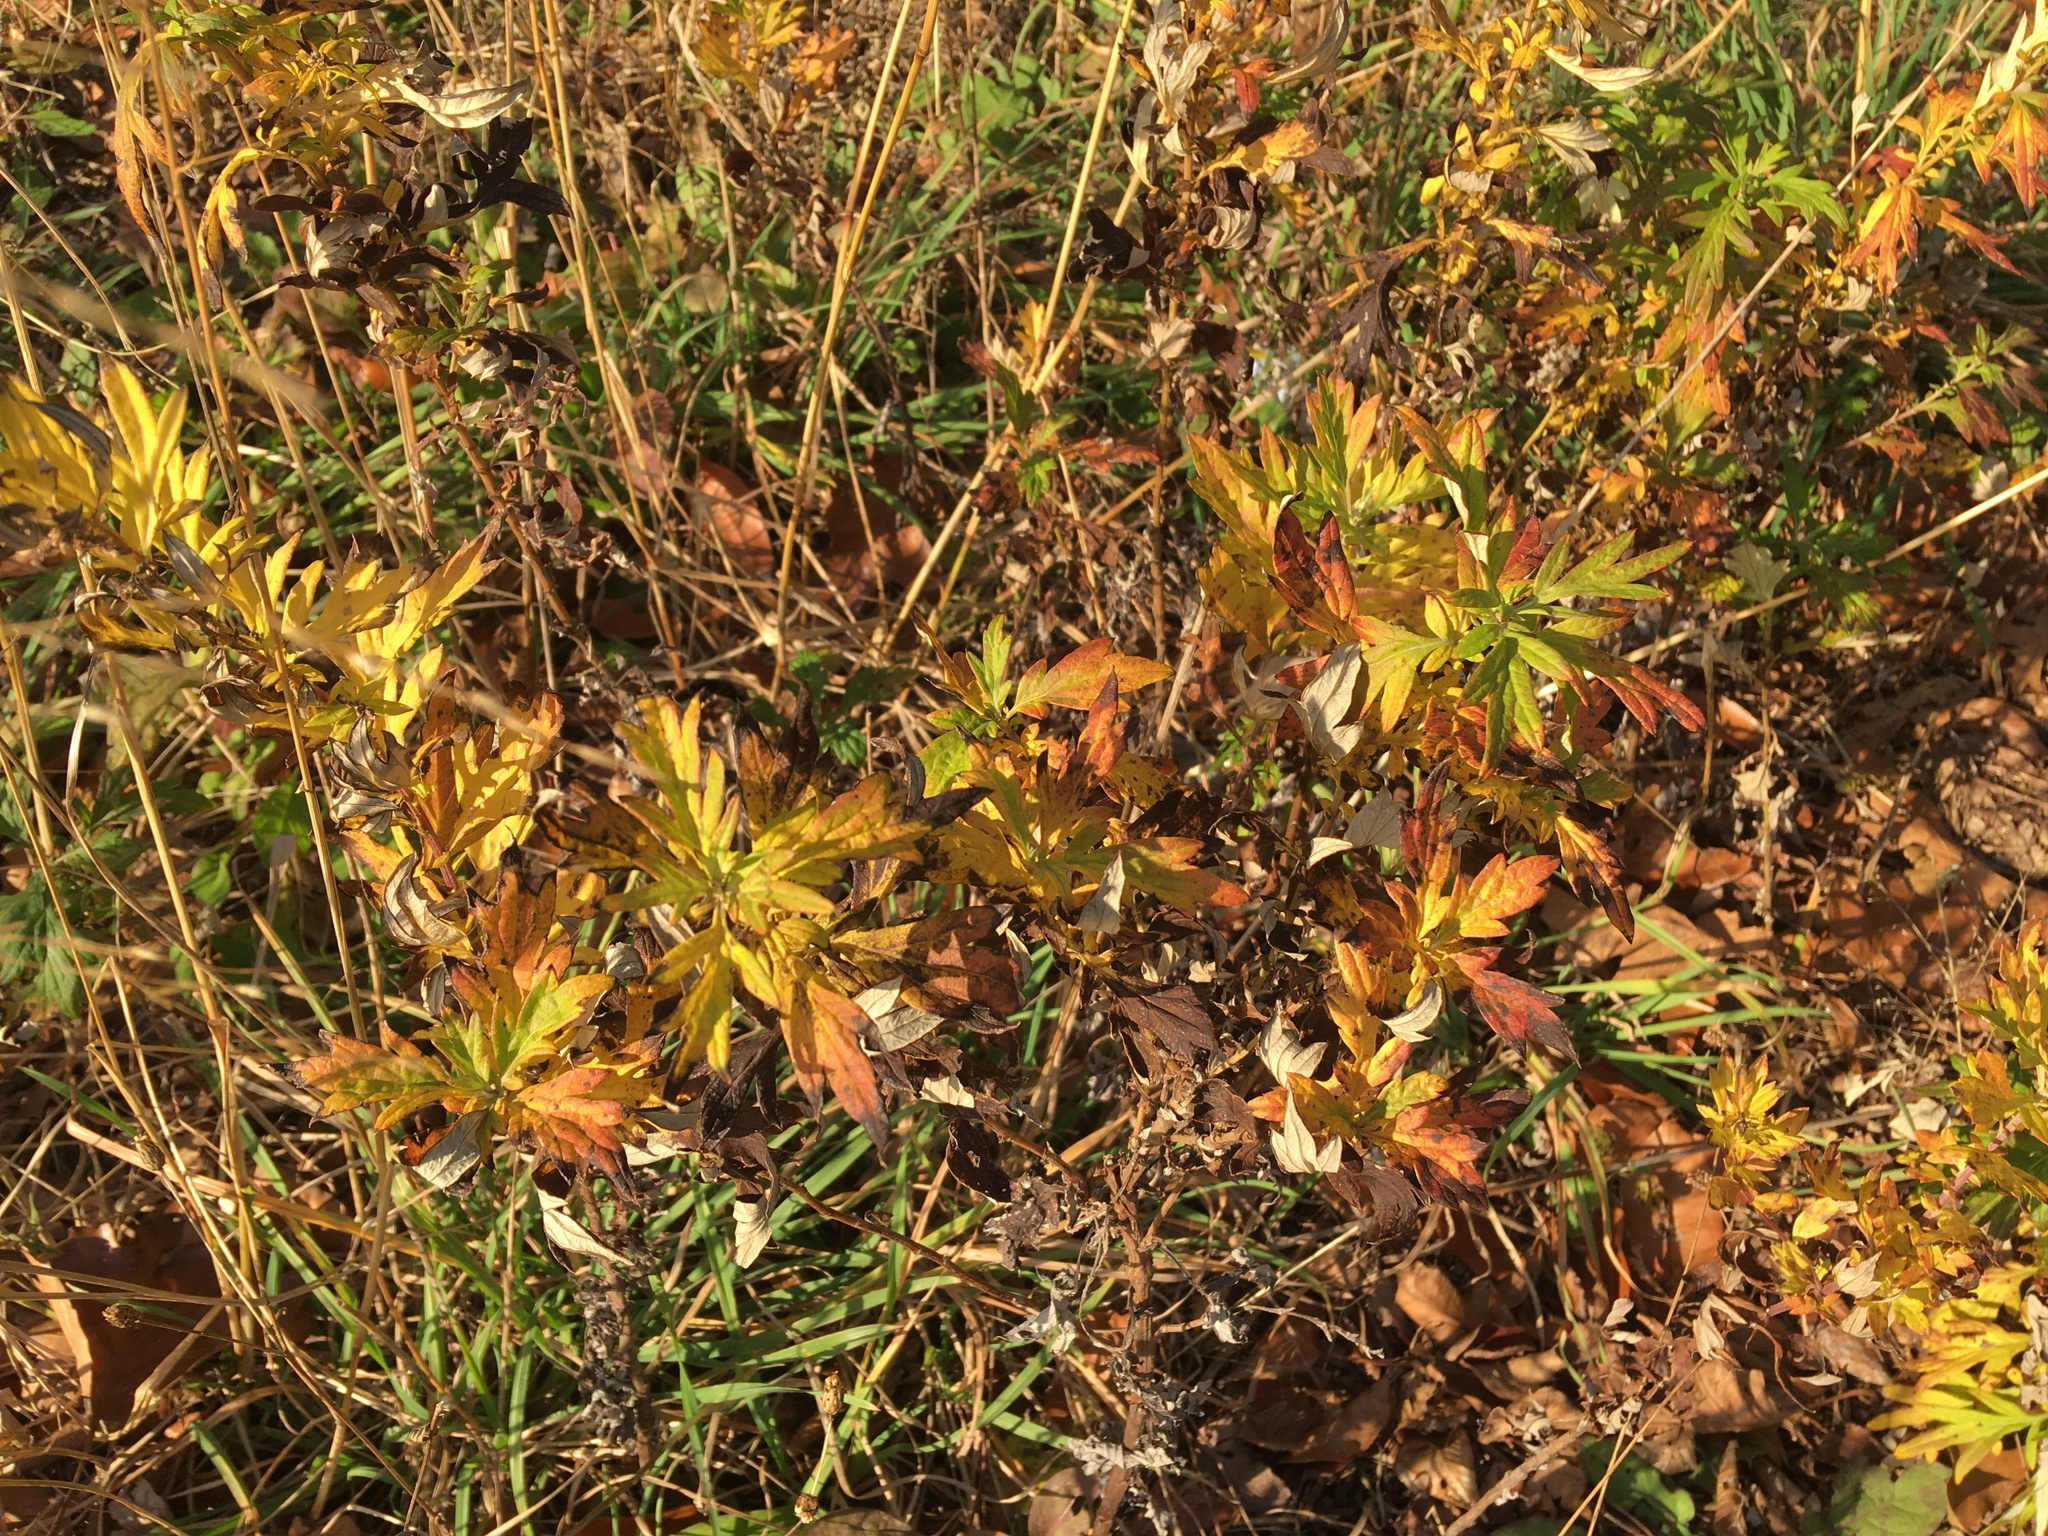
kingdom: Plantae
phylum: Tracheophyta
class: Magnoliopsida
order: Asterales
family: Asteraceae
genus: Artemisia
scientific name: Artemisia vulgaris
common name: Mugwort
